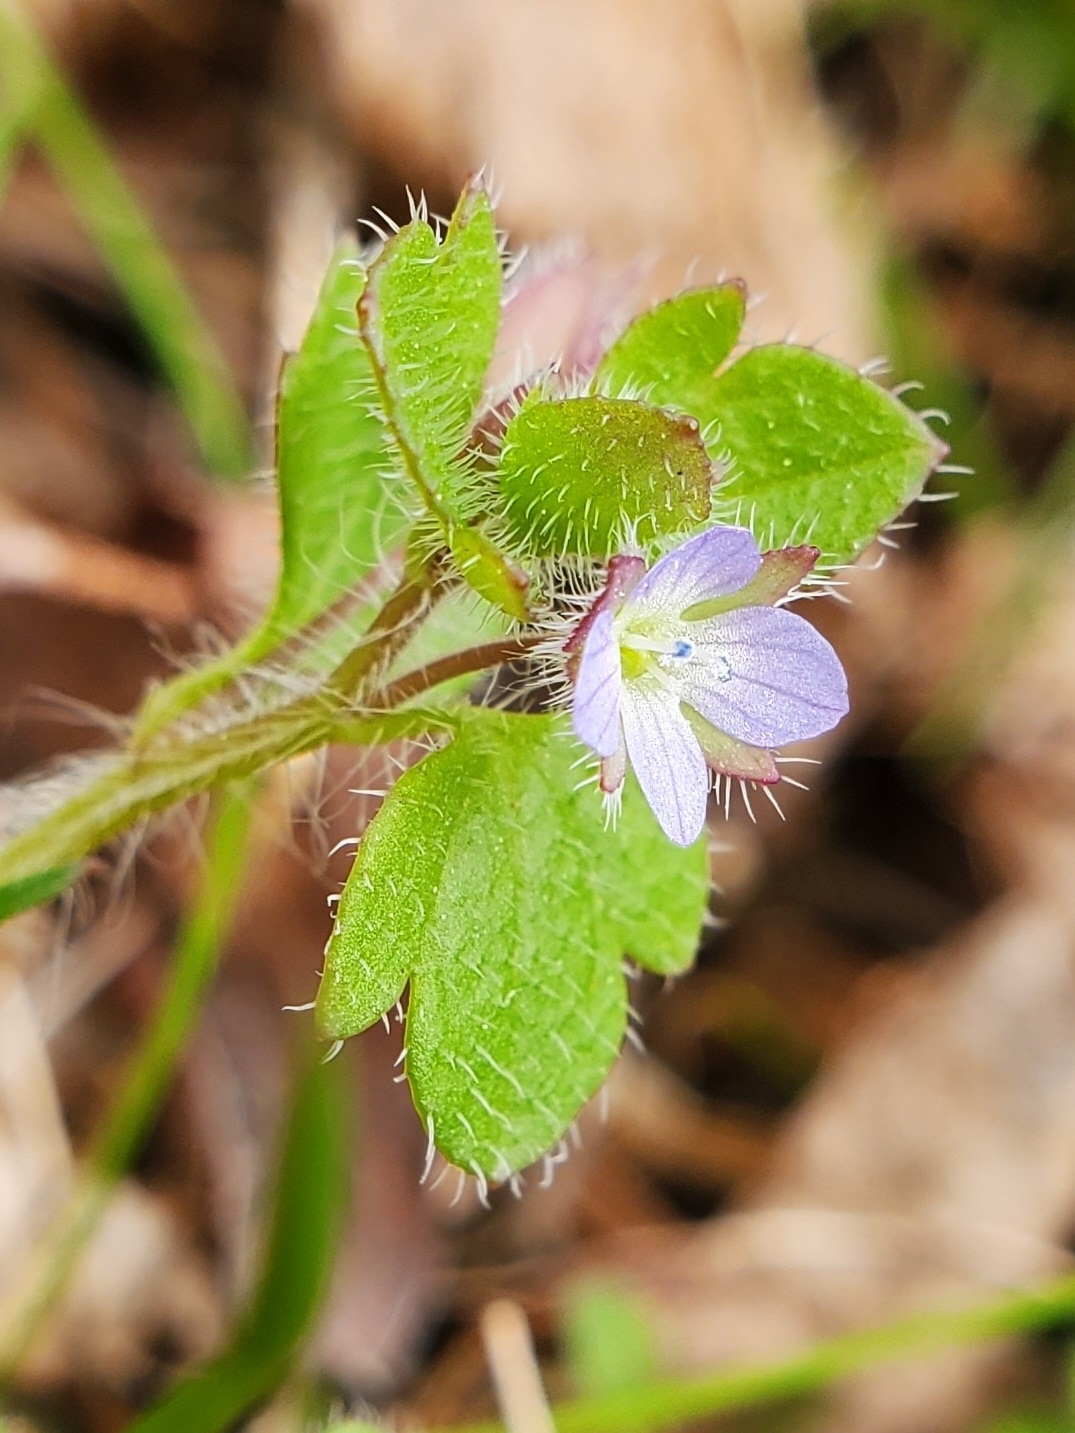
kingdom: Plantae
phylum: Tracheophyta
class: Magnoliopsida
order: Lamiales
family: Plantaginaceae
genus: Veronica
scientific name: Veronica hederifolia
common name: Ivy-leaved speedwell
